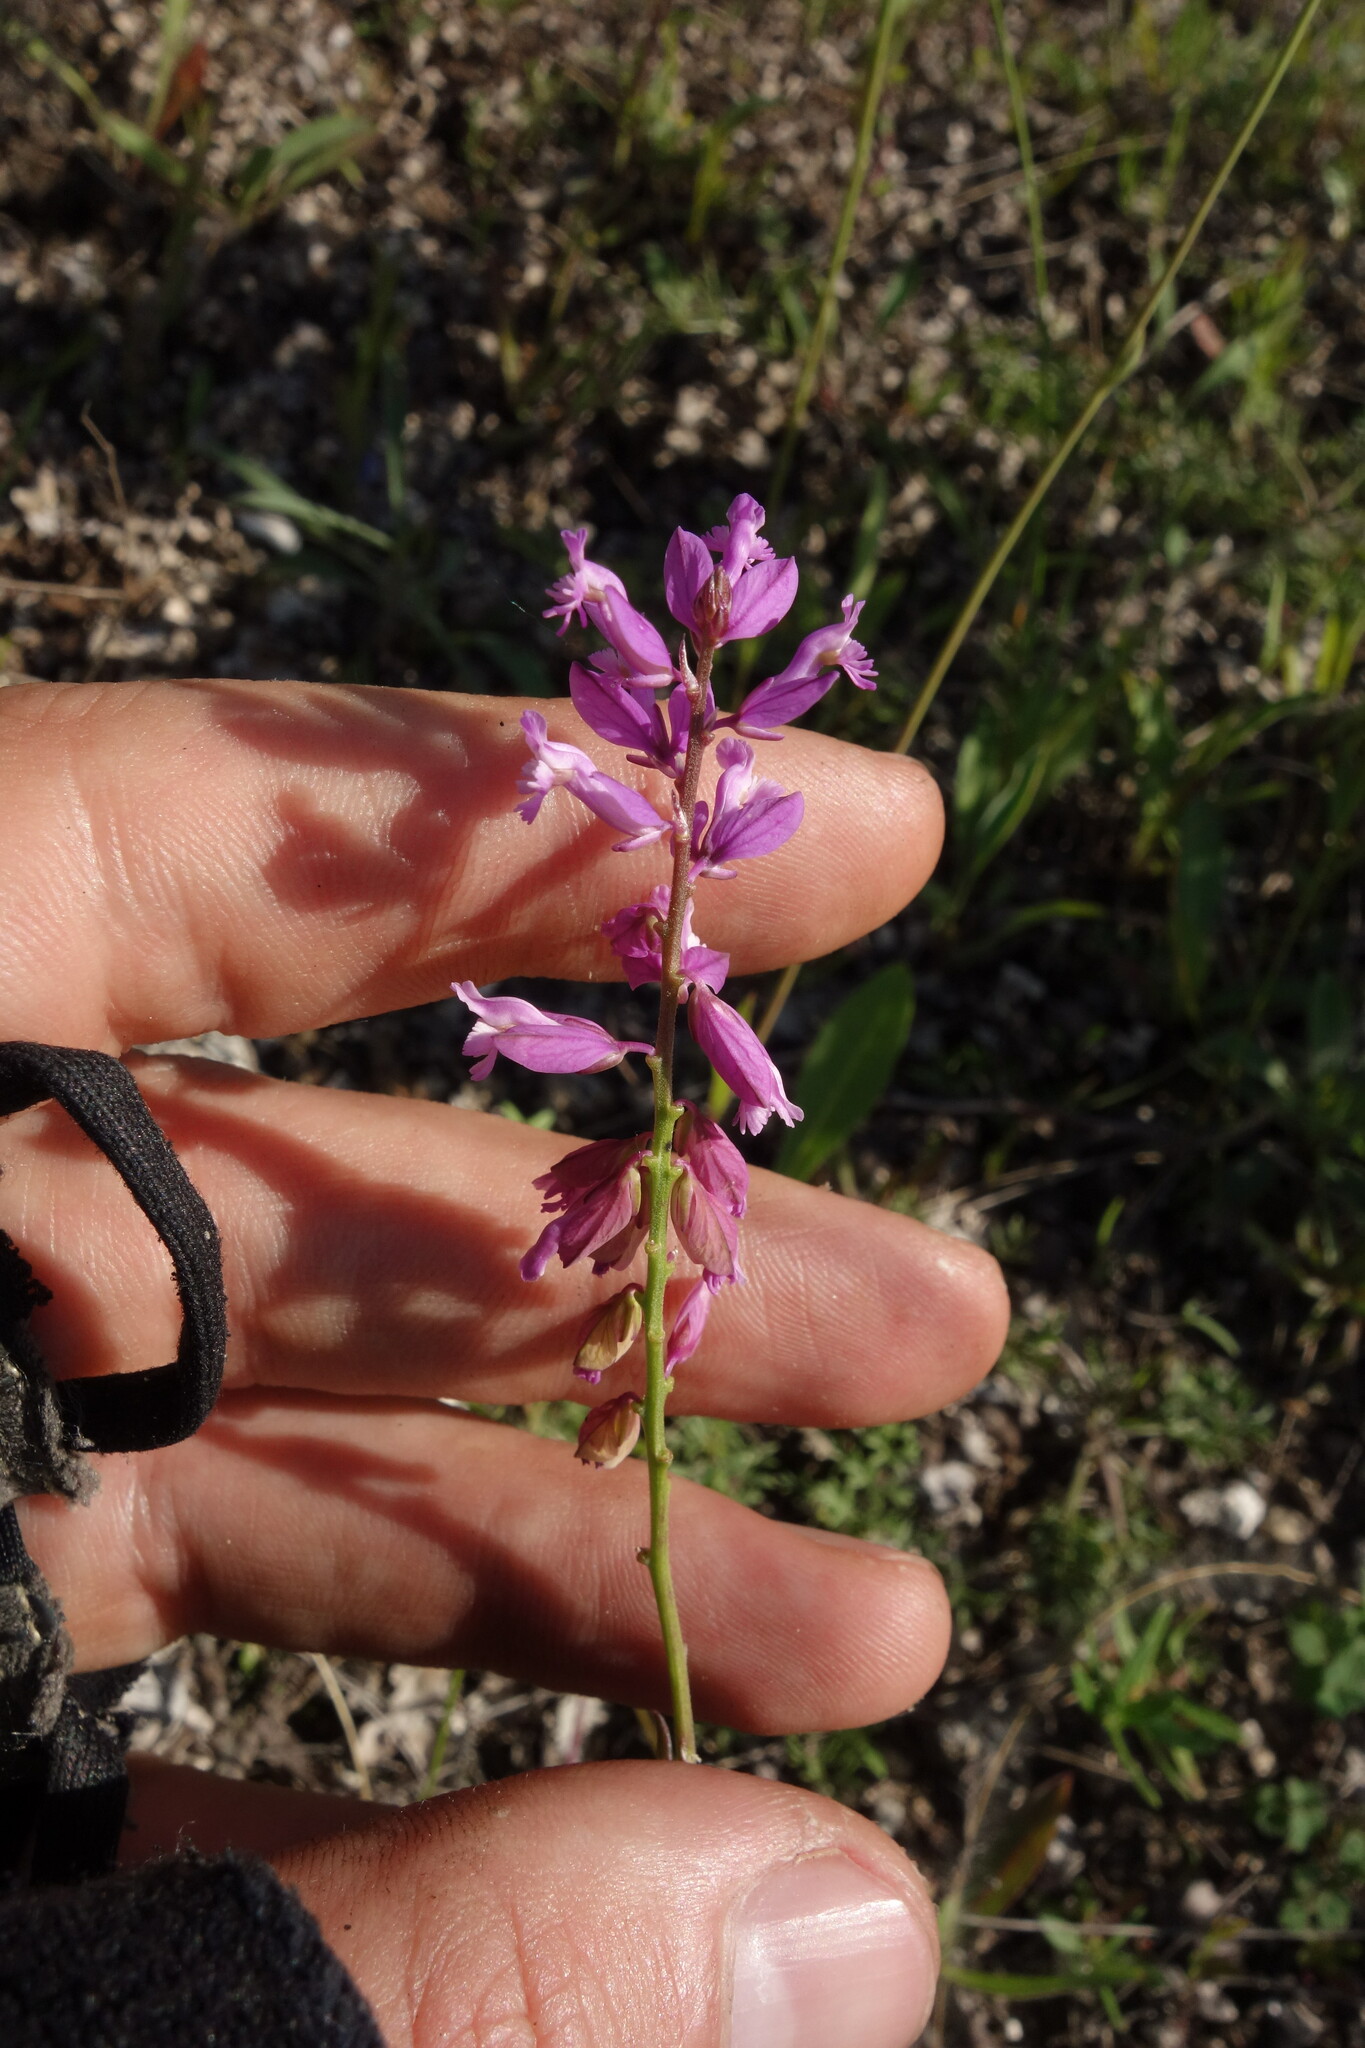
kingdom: Plantae
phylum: Tracheophyta
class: Magnoliopsida
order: Fabales
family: Polygalaceae
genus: Polygala
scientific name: Polygala nicaeensis
